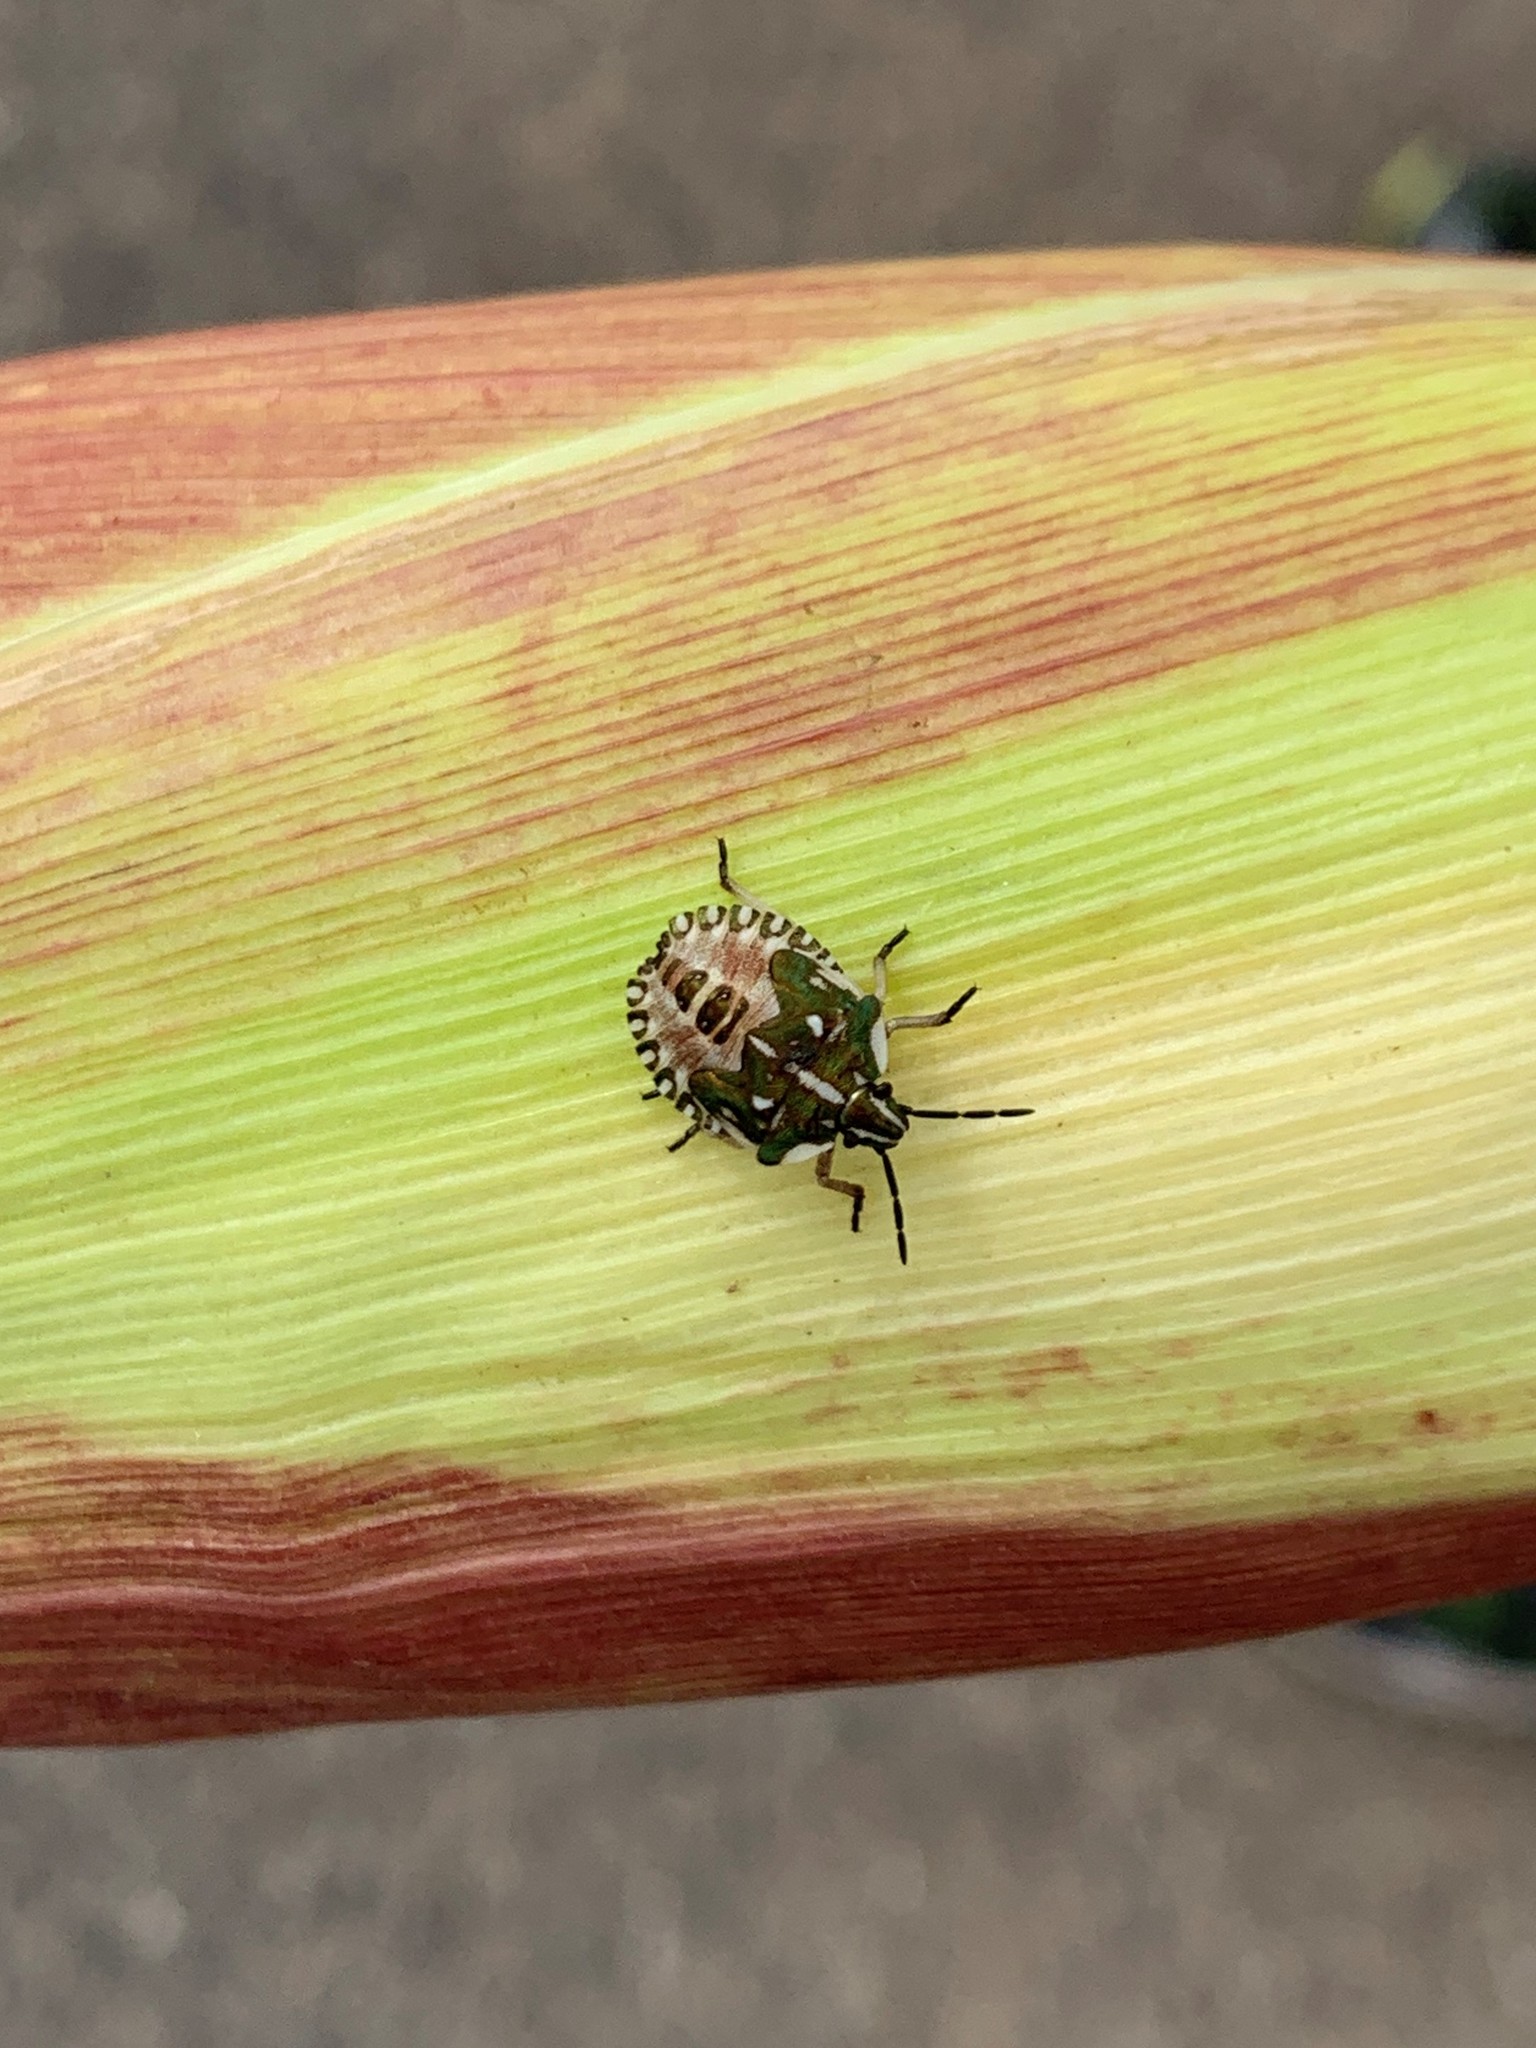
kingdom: Animalia
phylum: Arthropoda
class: Insecta
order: Hemiptera
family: Pentatomidae
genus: Carpocoris
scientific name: Carpocoris purpureipennis
